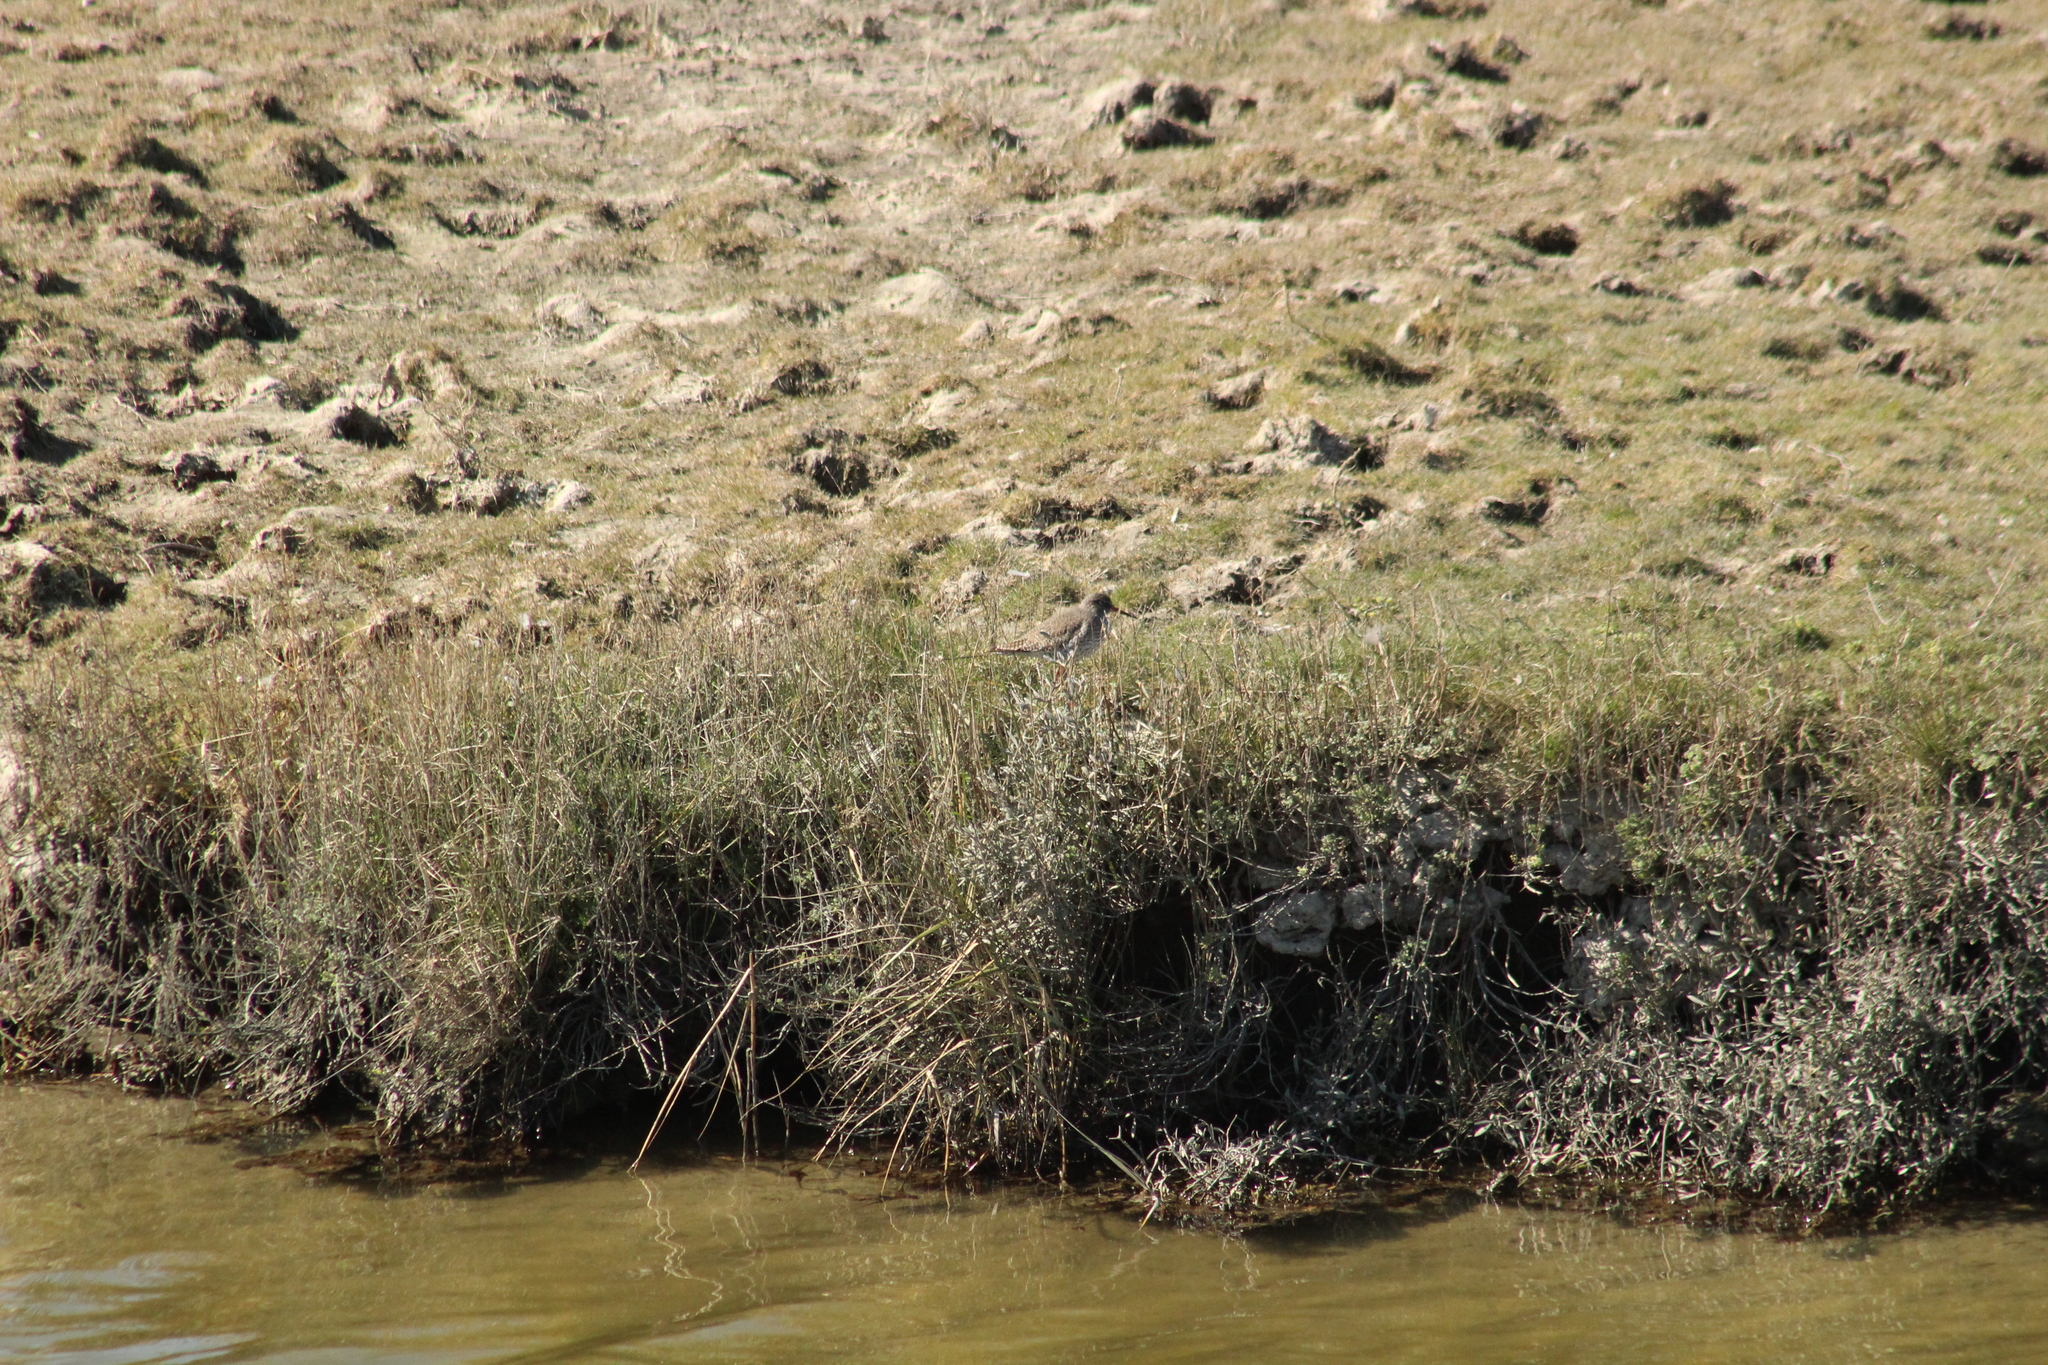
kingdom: Animalia
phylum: Chordata
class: Aves
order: Charadriiformes
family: Scolopacidae
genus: Tringa
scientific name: Tringa totanus
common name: Common redshank
